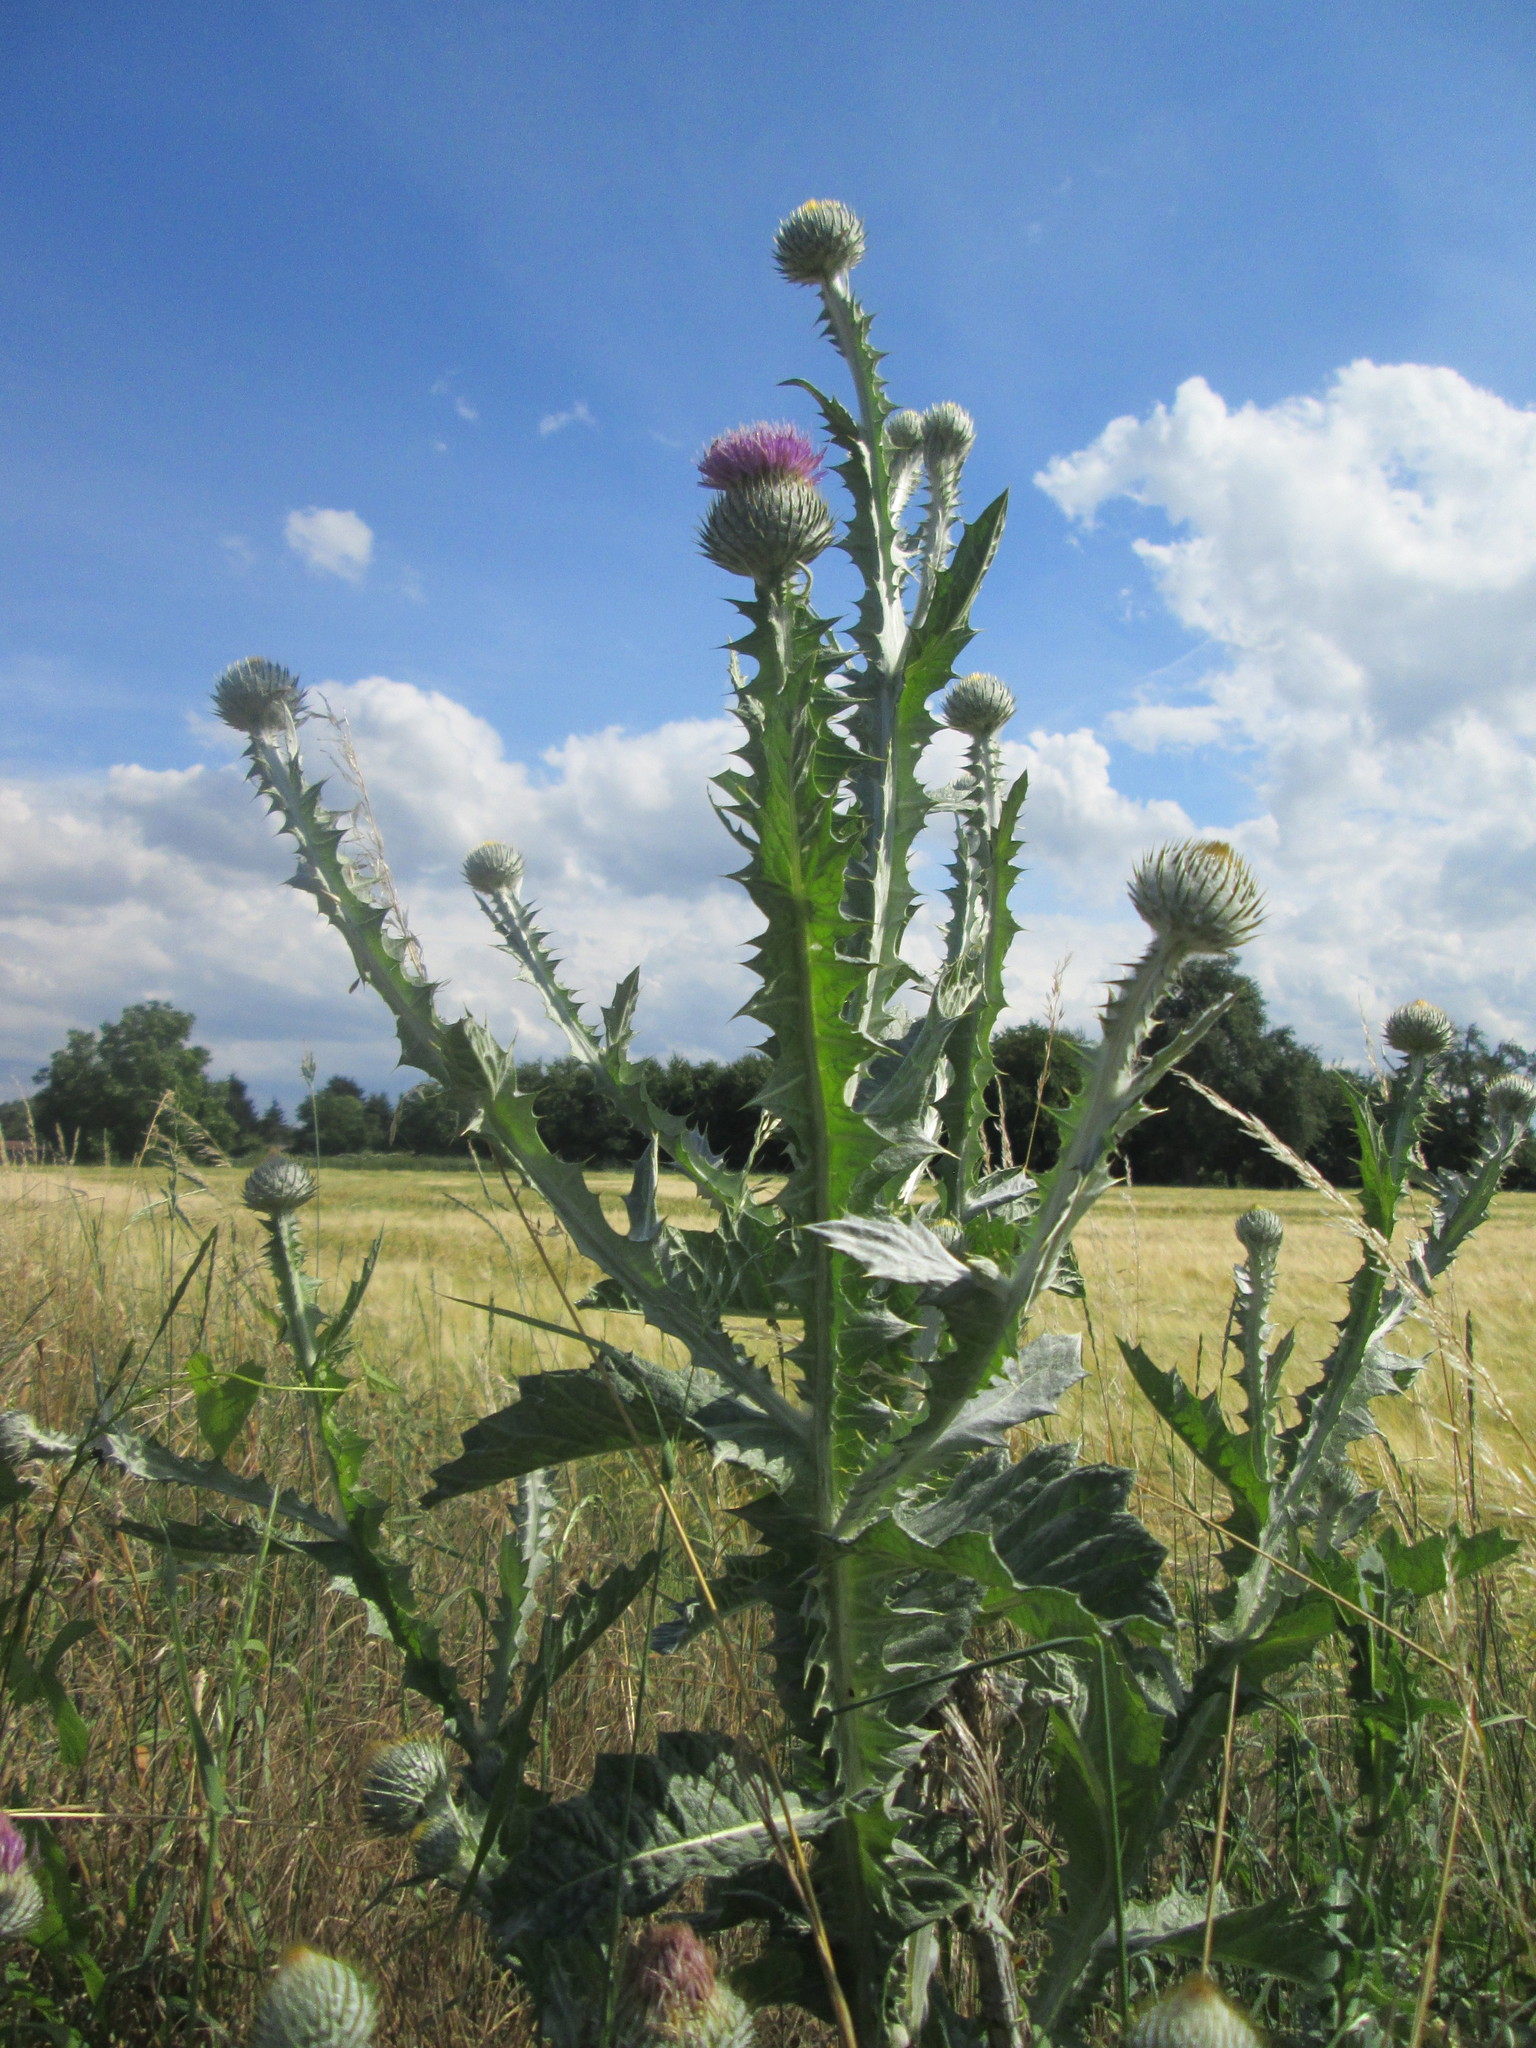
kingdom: Plantae
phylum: Tracheophyta
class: Magnoliopsida
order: Asterales
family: Asteraceae
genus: Onopordum
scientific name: Onopordum acanthium
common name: Scotch thistle
